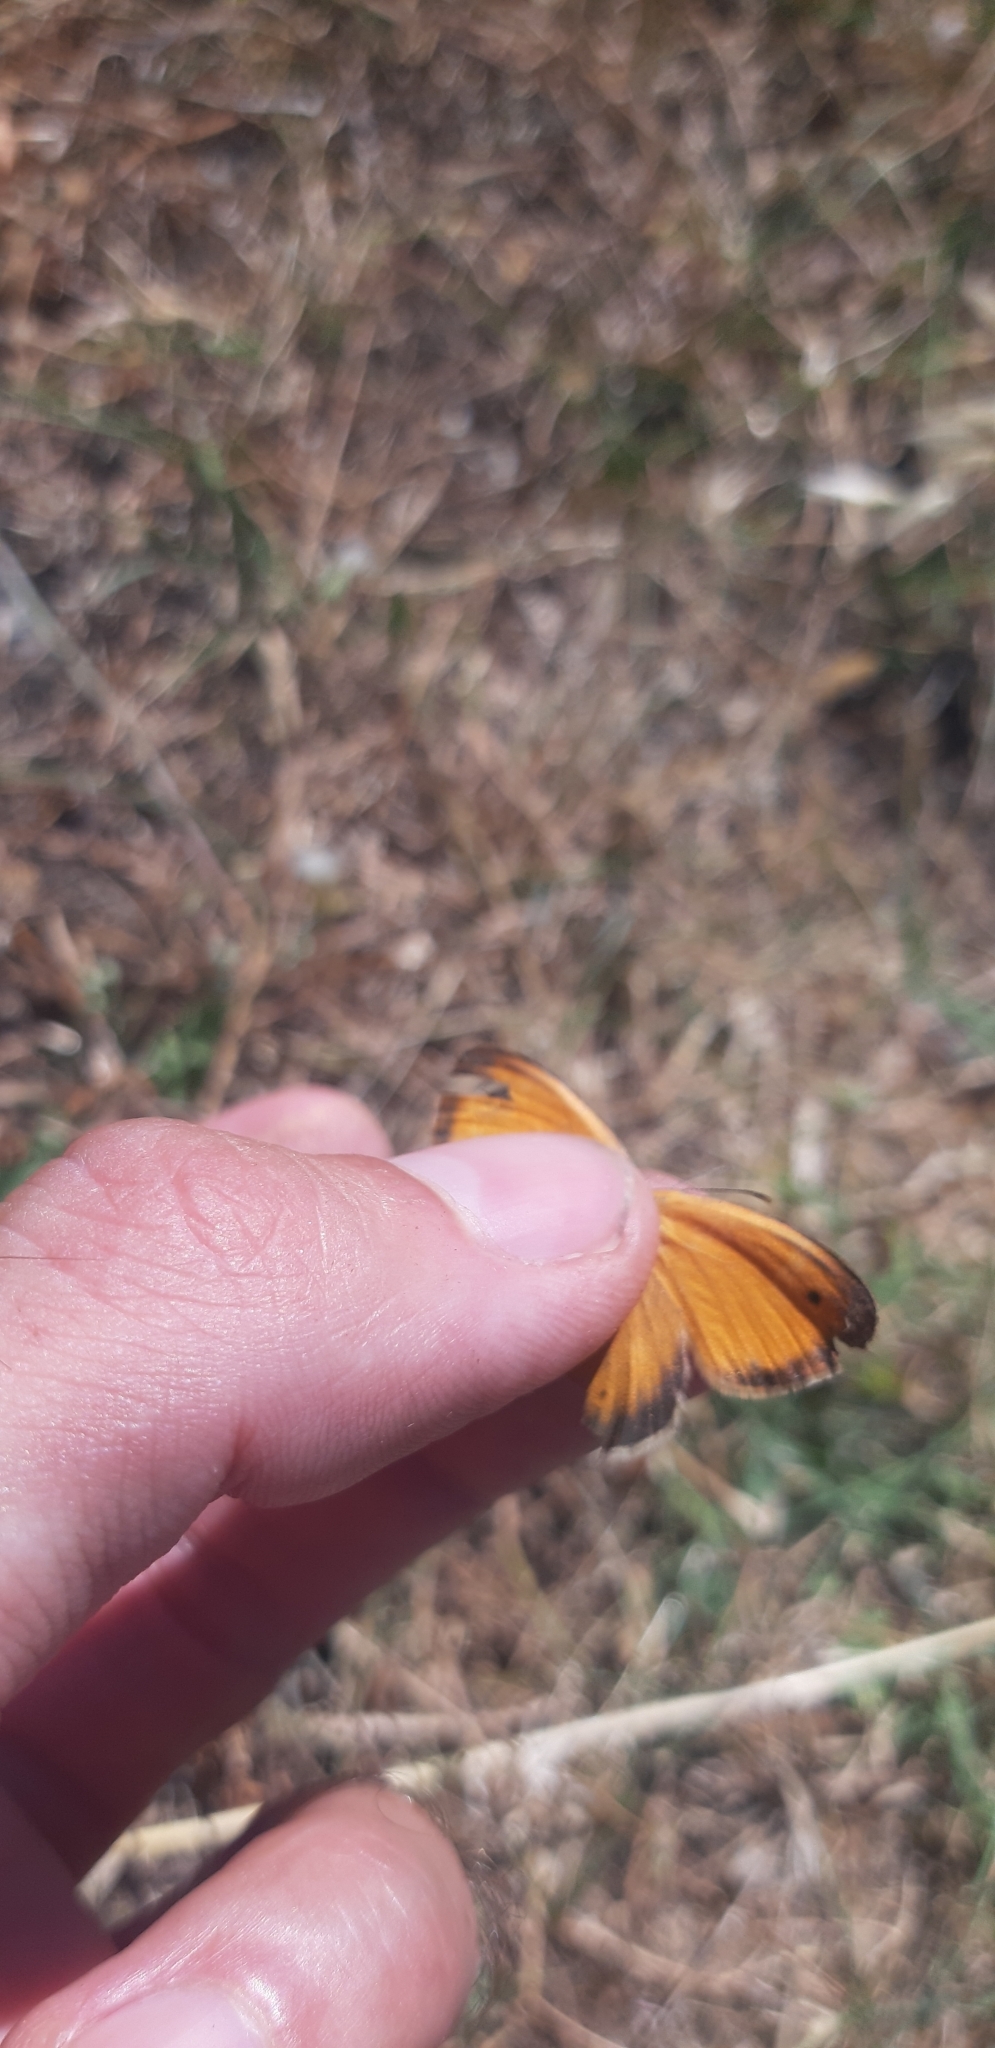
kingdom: Animalia
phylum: Arthropoda
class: Insecta
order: Lepidoptera
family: Nymphalidae
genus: Pyronia
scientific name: Pyronia cecilia
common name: Southern gatekeeper
